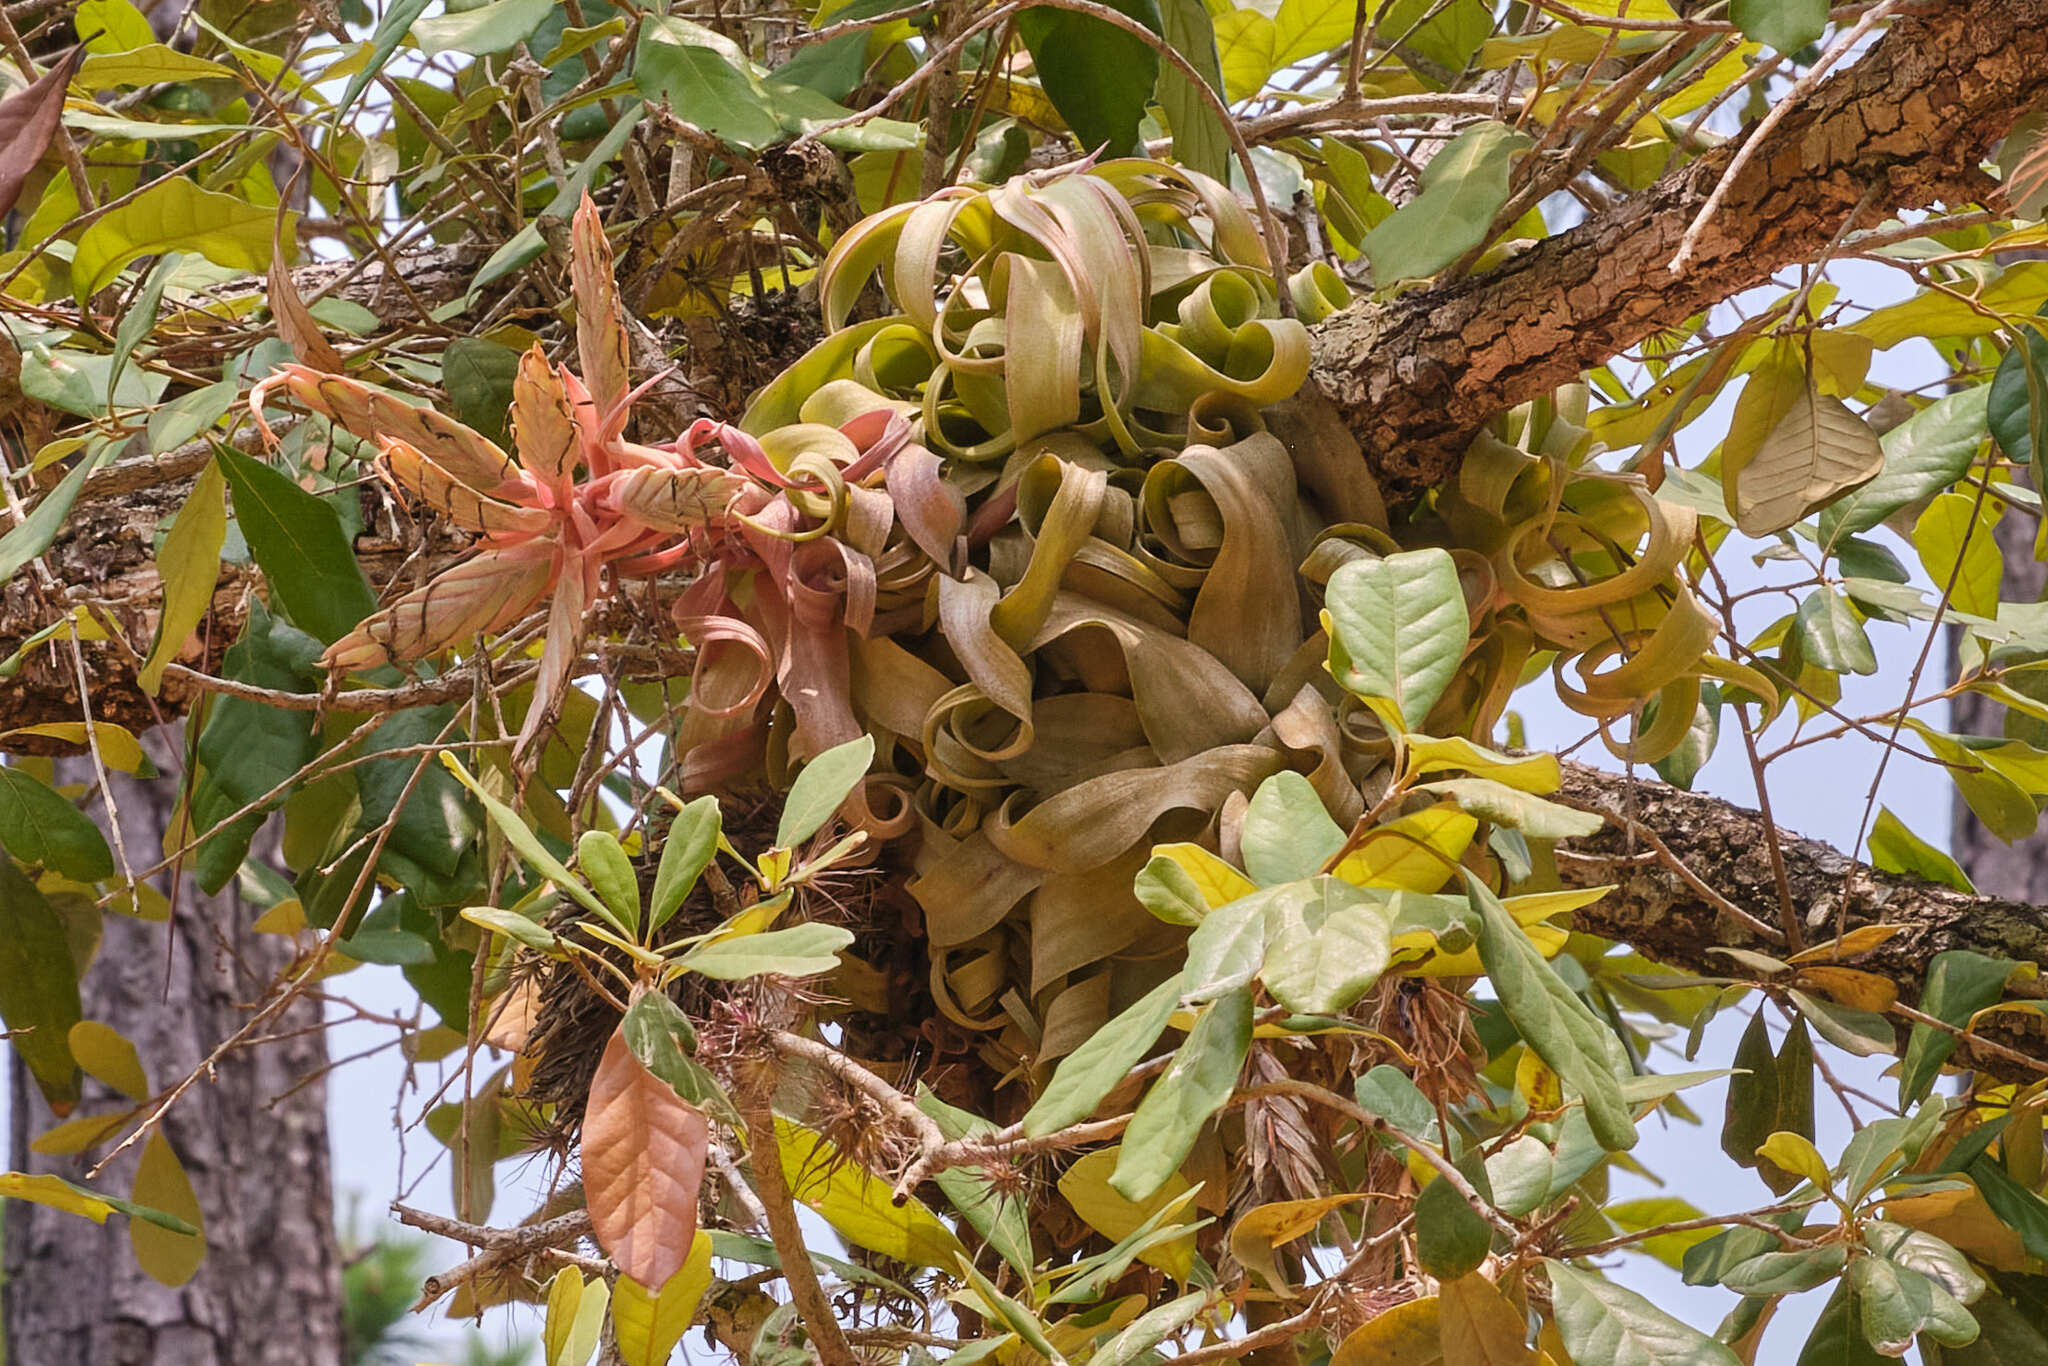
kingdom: Plantae
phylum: Tracheophyta
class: Liliopsida
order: Poales
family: Bromeliaceae
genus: Tillandsia
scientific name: Tillandsia streptophylla
